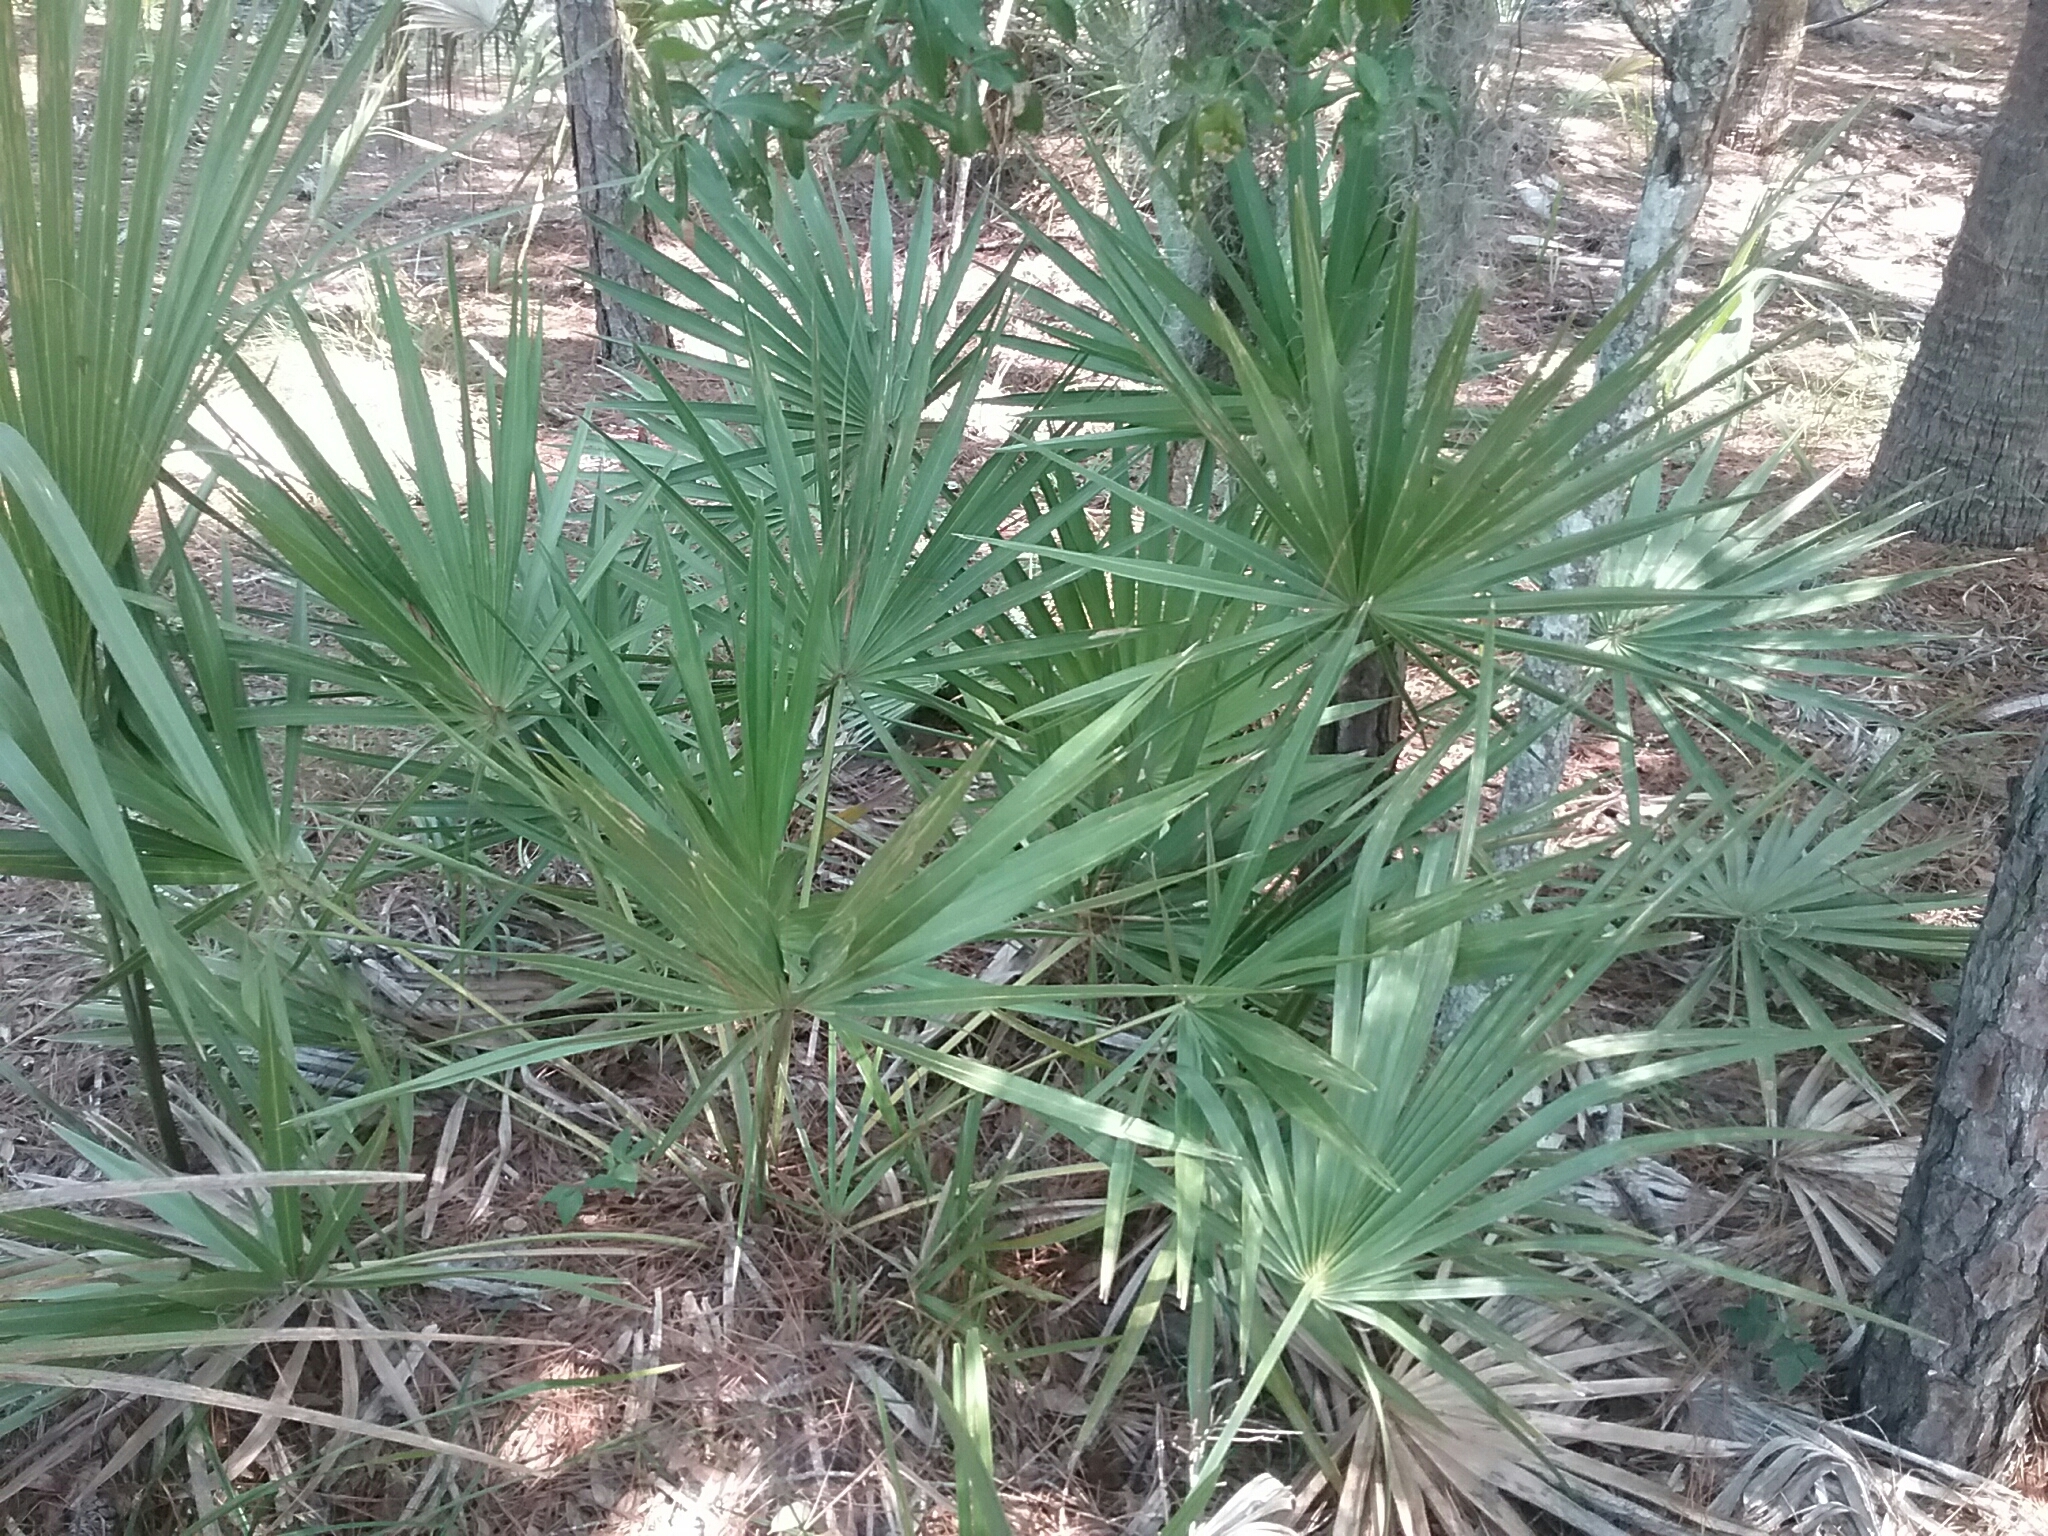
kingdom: Plantae
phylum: Tracheophyta
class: Liliopsida
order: Arecales
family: Arecaceae
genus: Serenoa
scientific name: Serenoa repens
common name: Saw-palmetto
